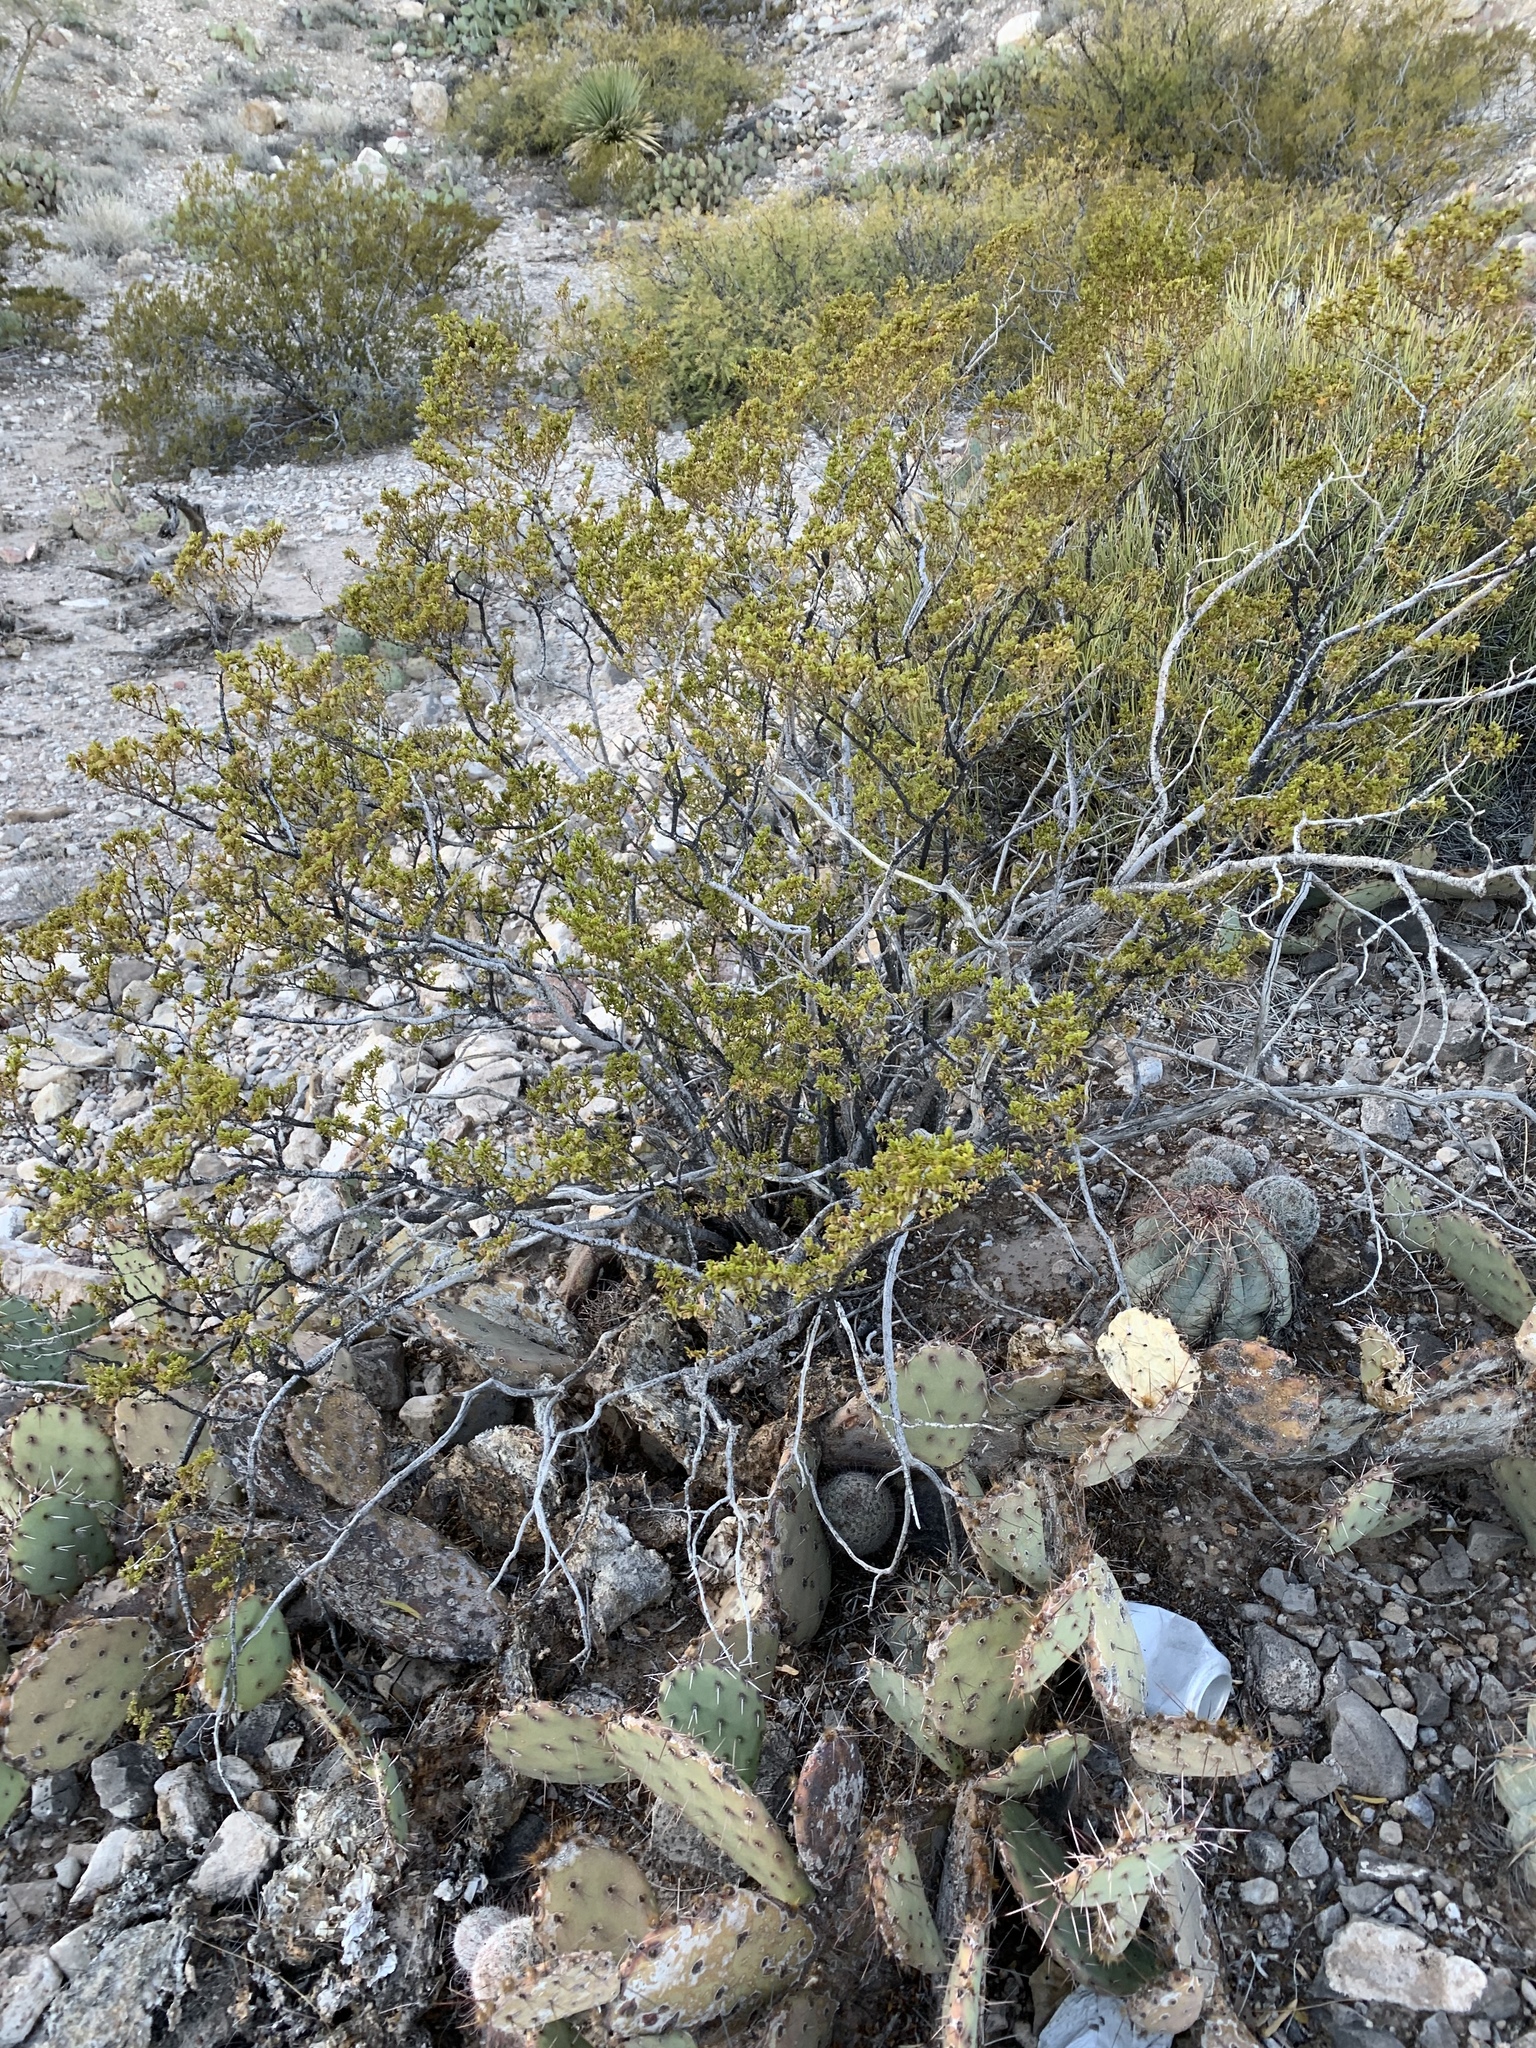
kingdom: Plantae
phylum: Tracheophyta
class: Magnoliopsida
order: Zygophyllales
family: Zygophyllaceae
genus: Larrea
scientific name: Larrea tridentata
